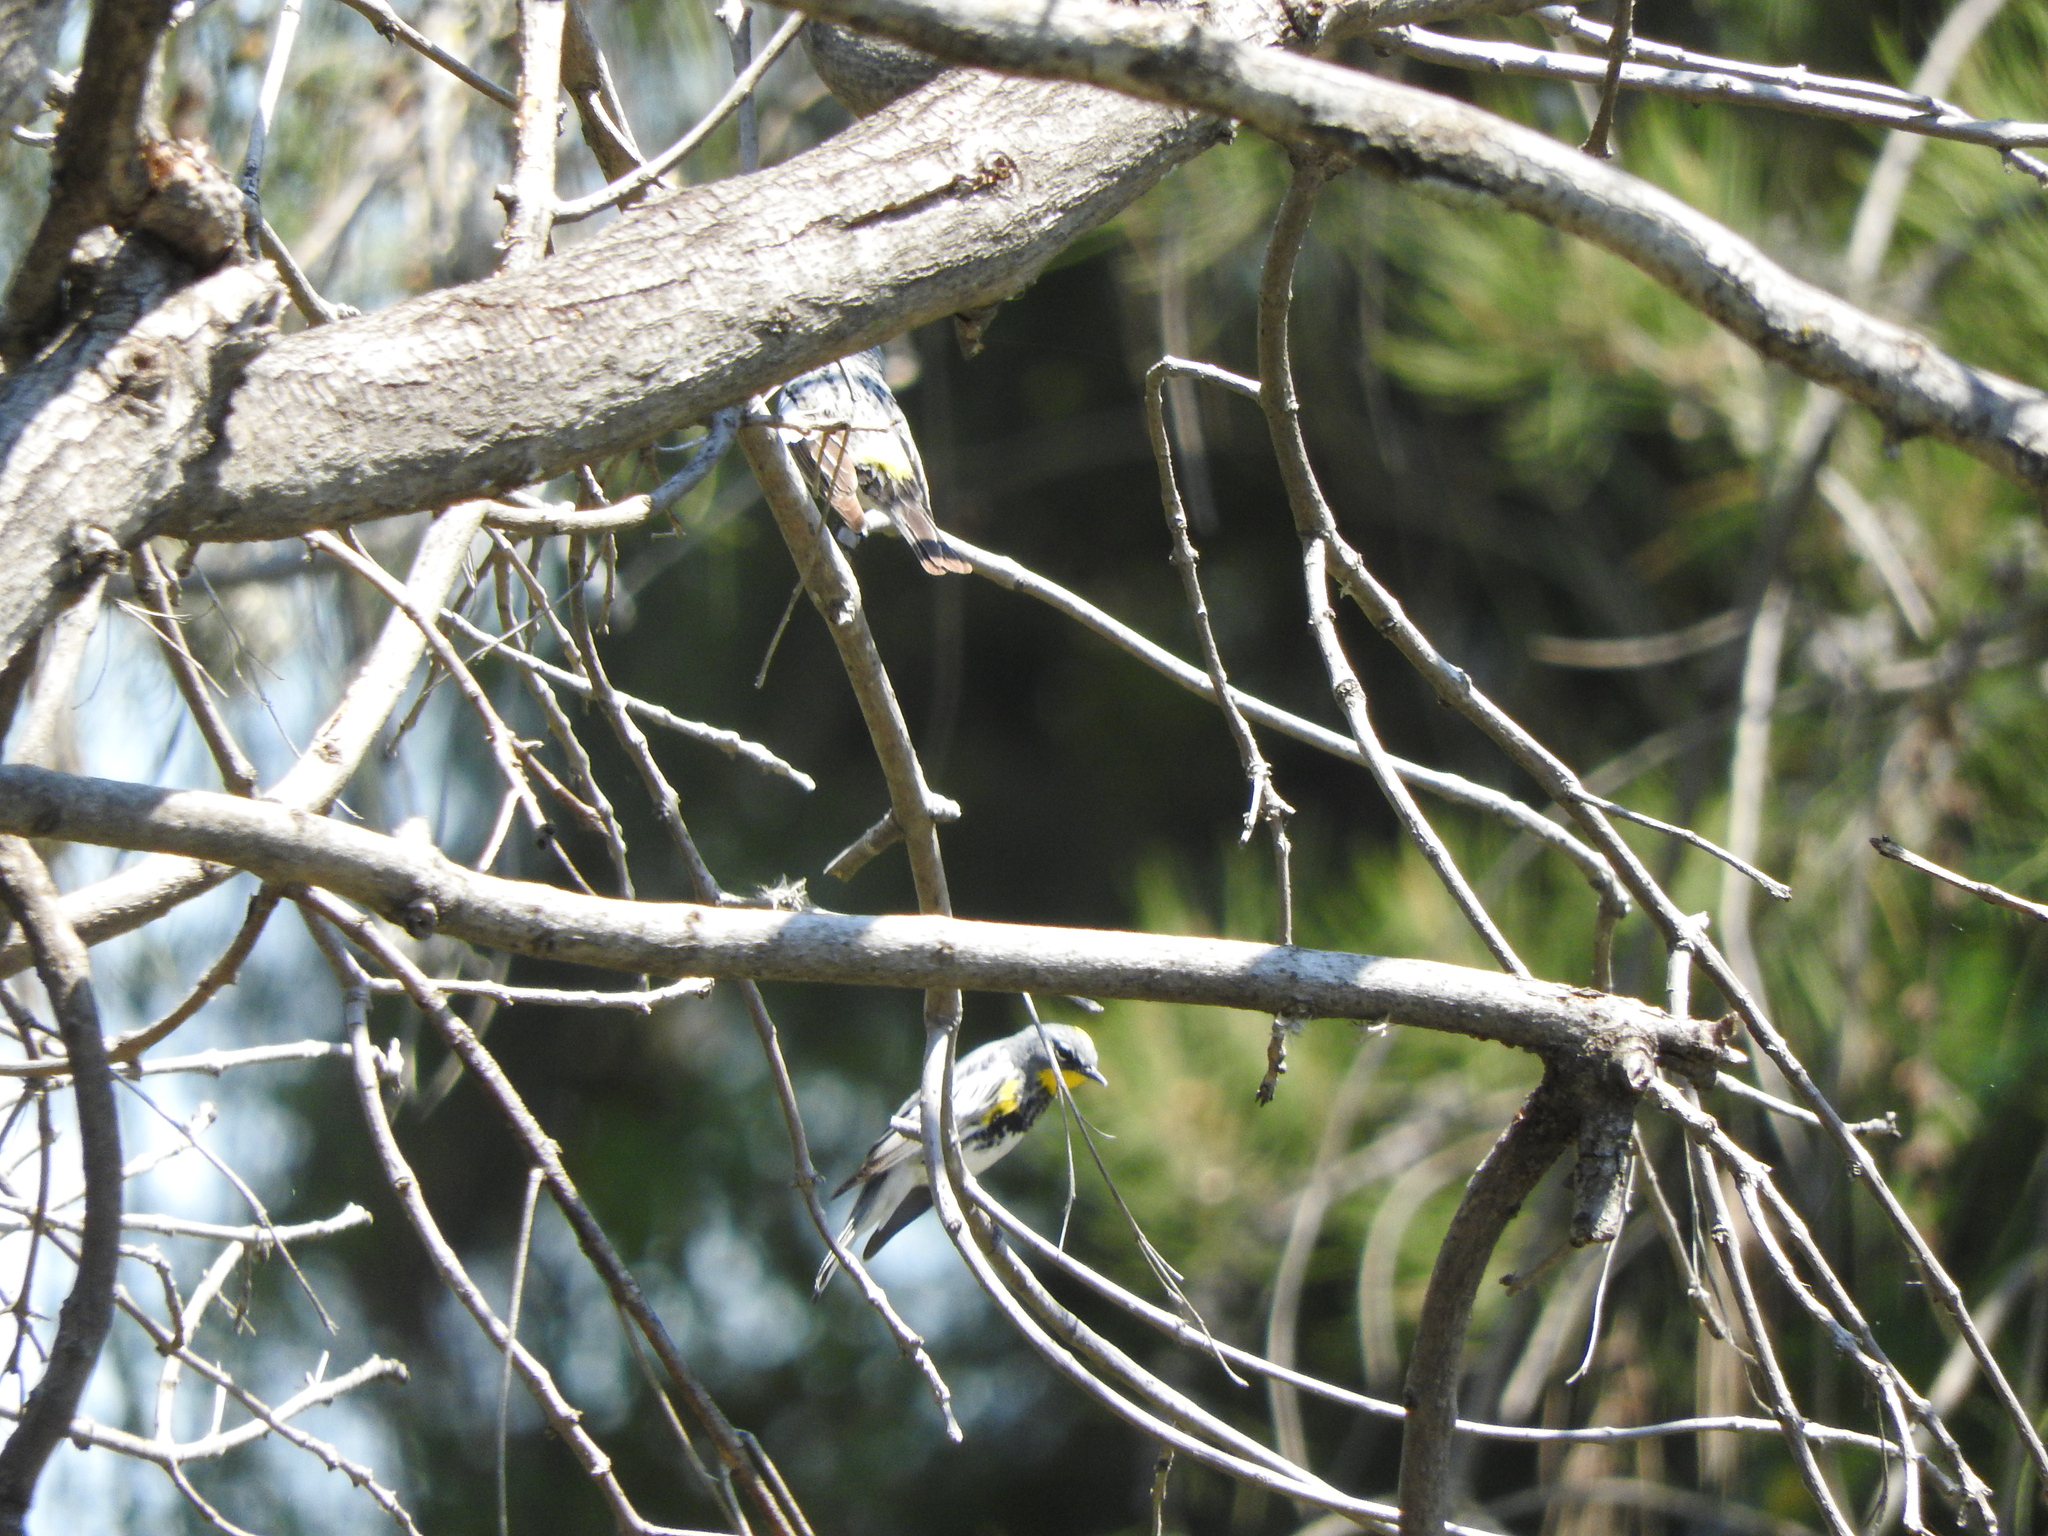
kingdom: Animalia
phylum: Chordata
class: Aves
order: Passeriformes
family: Parulidae
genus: Setophaga
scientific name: Setophaga coronata
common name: Myrtle warbler
